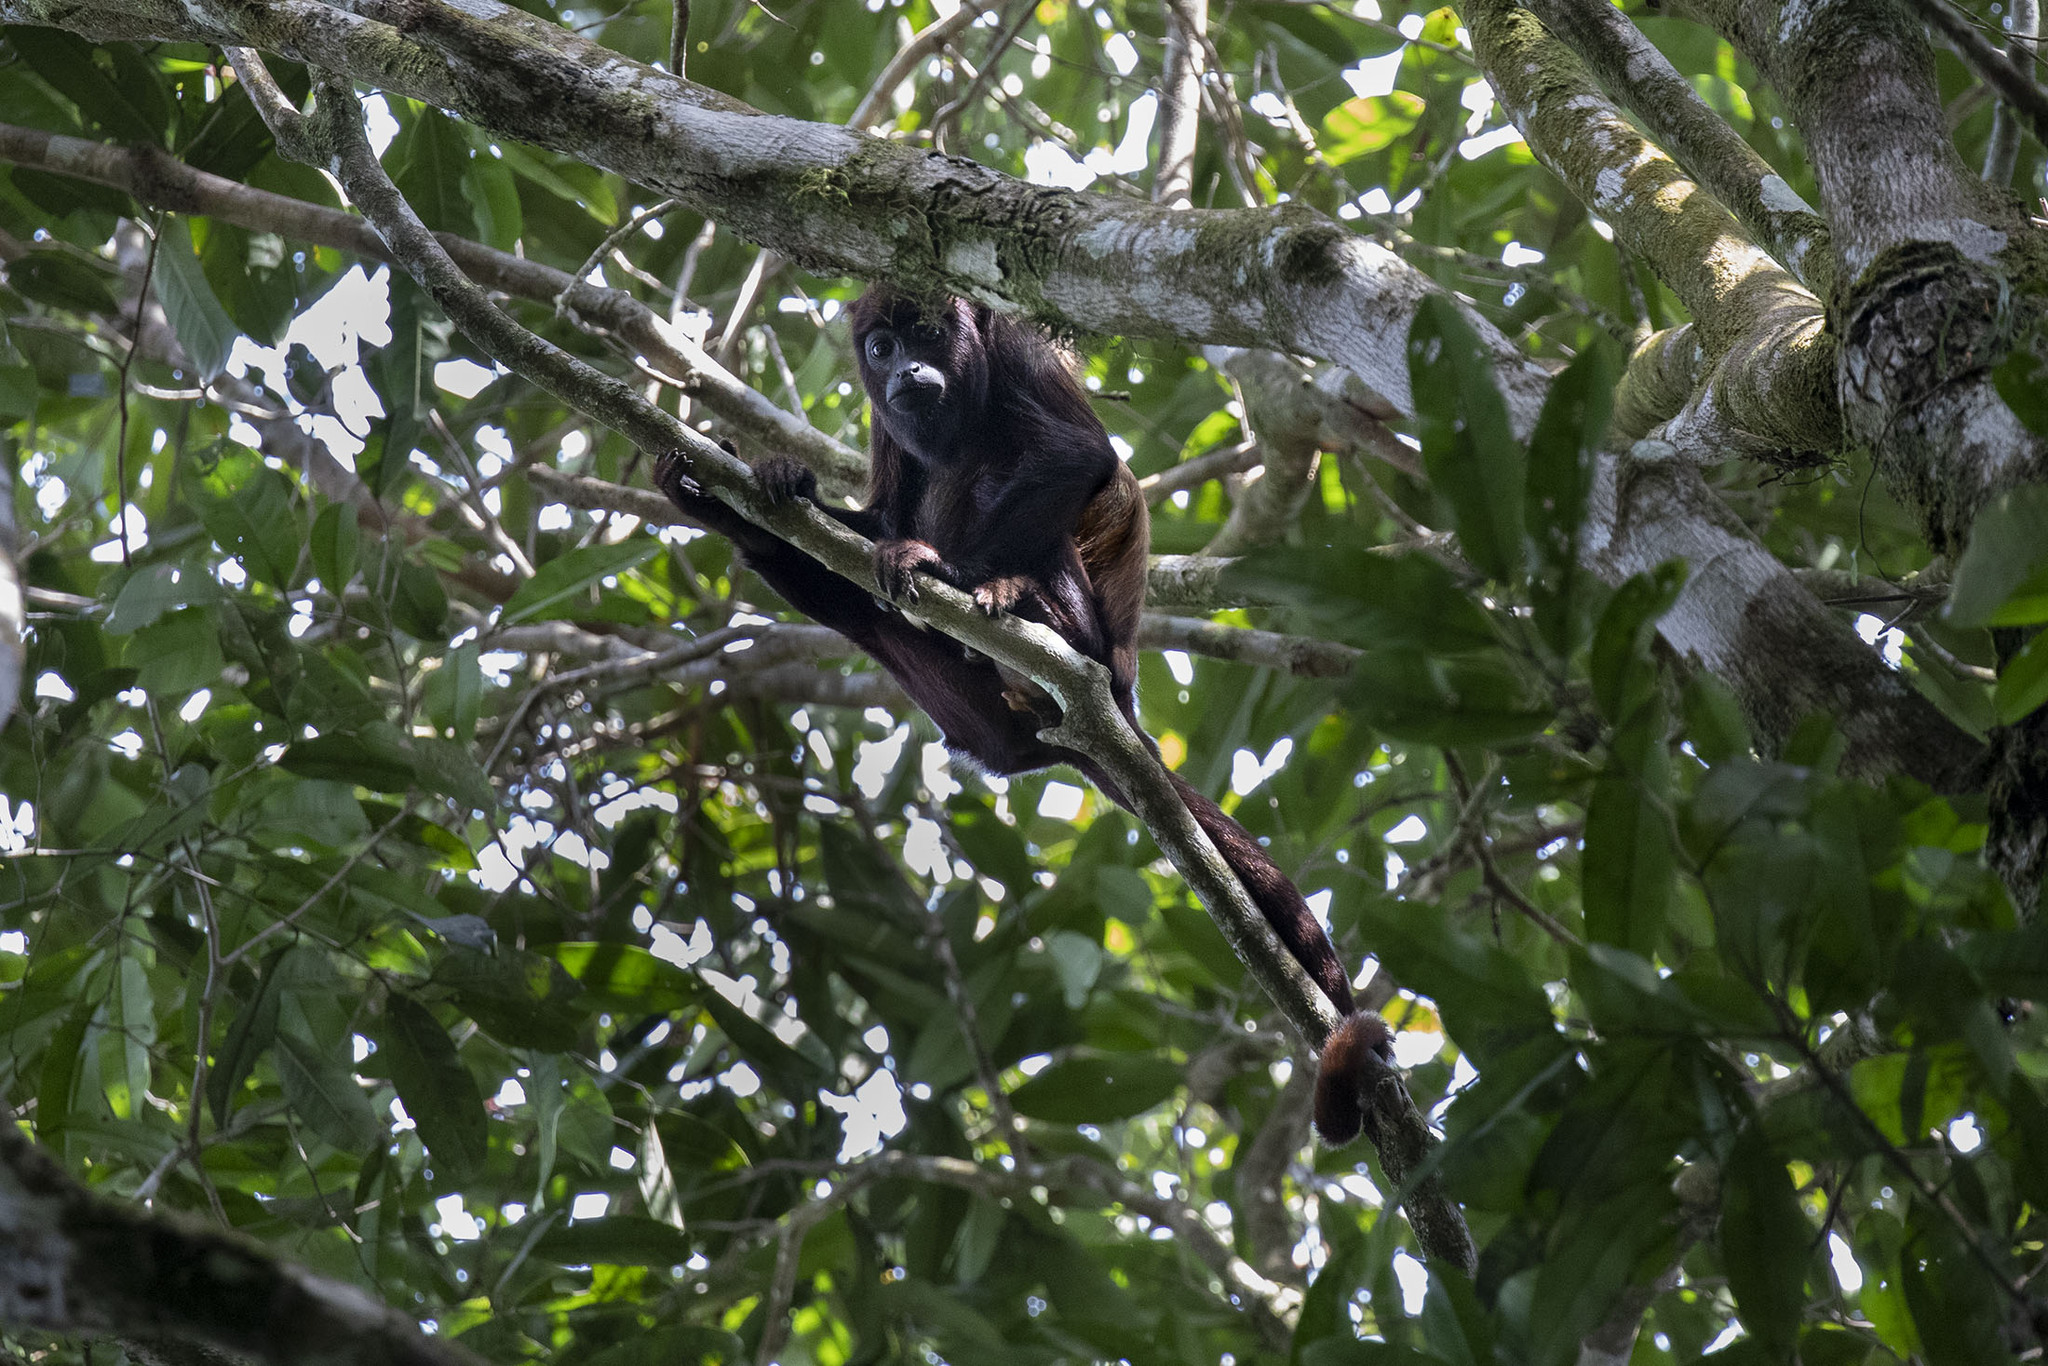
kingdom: Animalia
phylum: Chordata
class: Mammalia
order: Primates
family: Atelidae
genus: Alouatta
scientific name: Alouatta macconnelli
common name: Guyanan red howler
